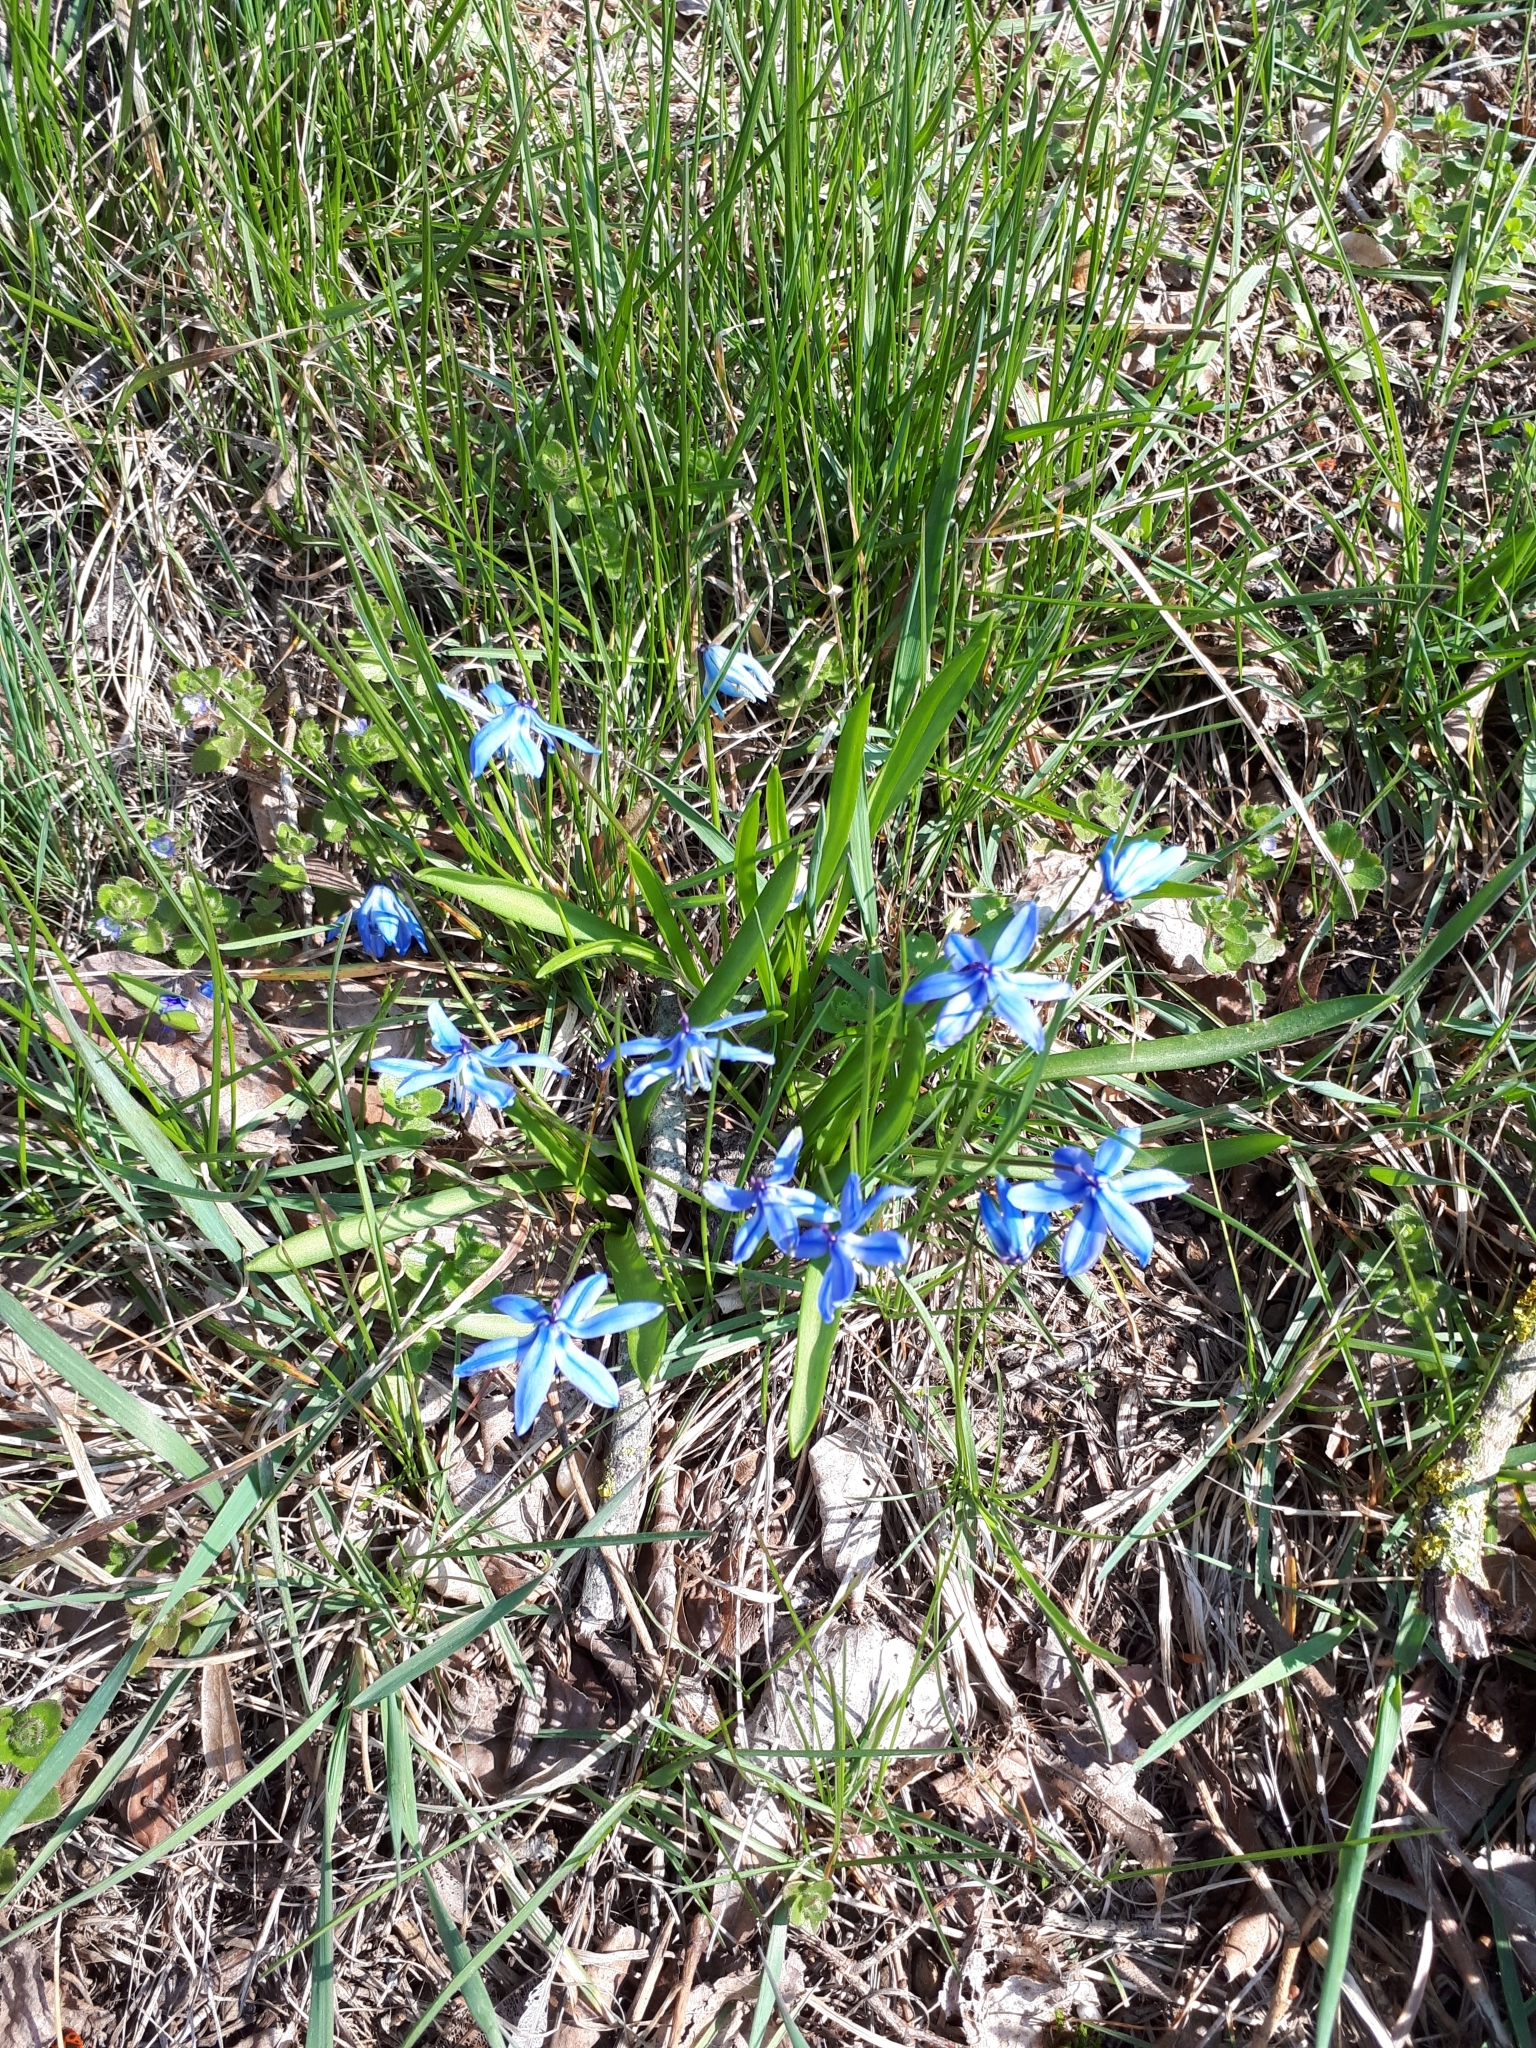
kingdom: Plantae
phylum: Tracheophyta
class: Liliopsida
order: Asparagales
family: Asparagaceae
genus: Scilla
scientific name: Scilla siberica
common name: Siberian squill
